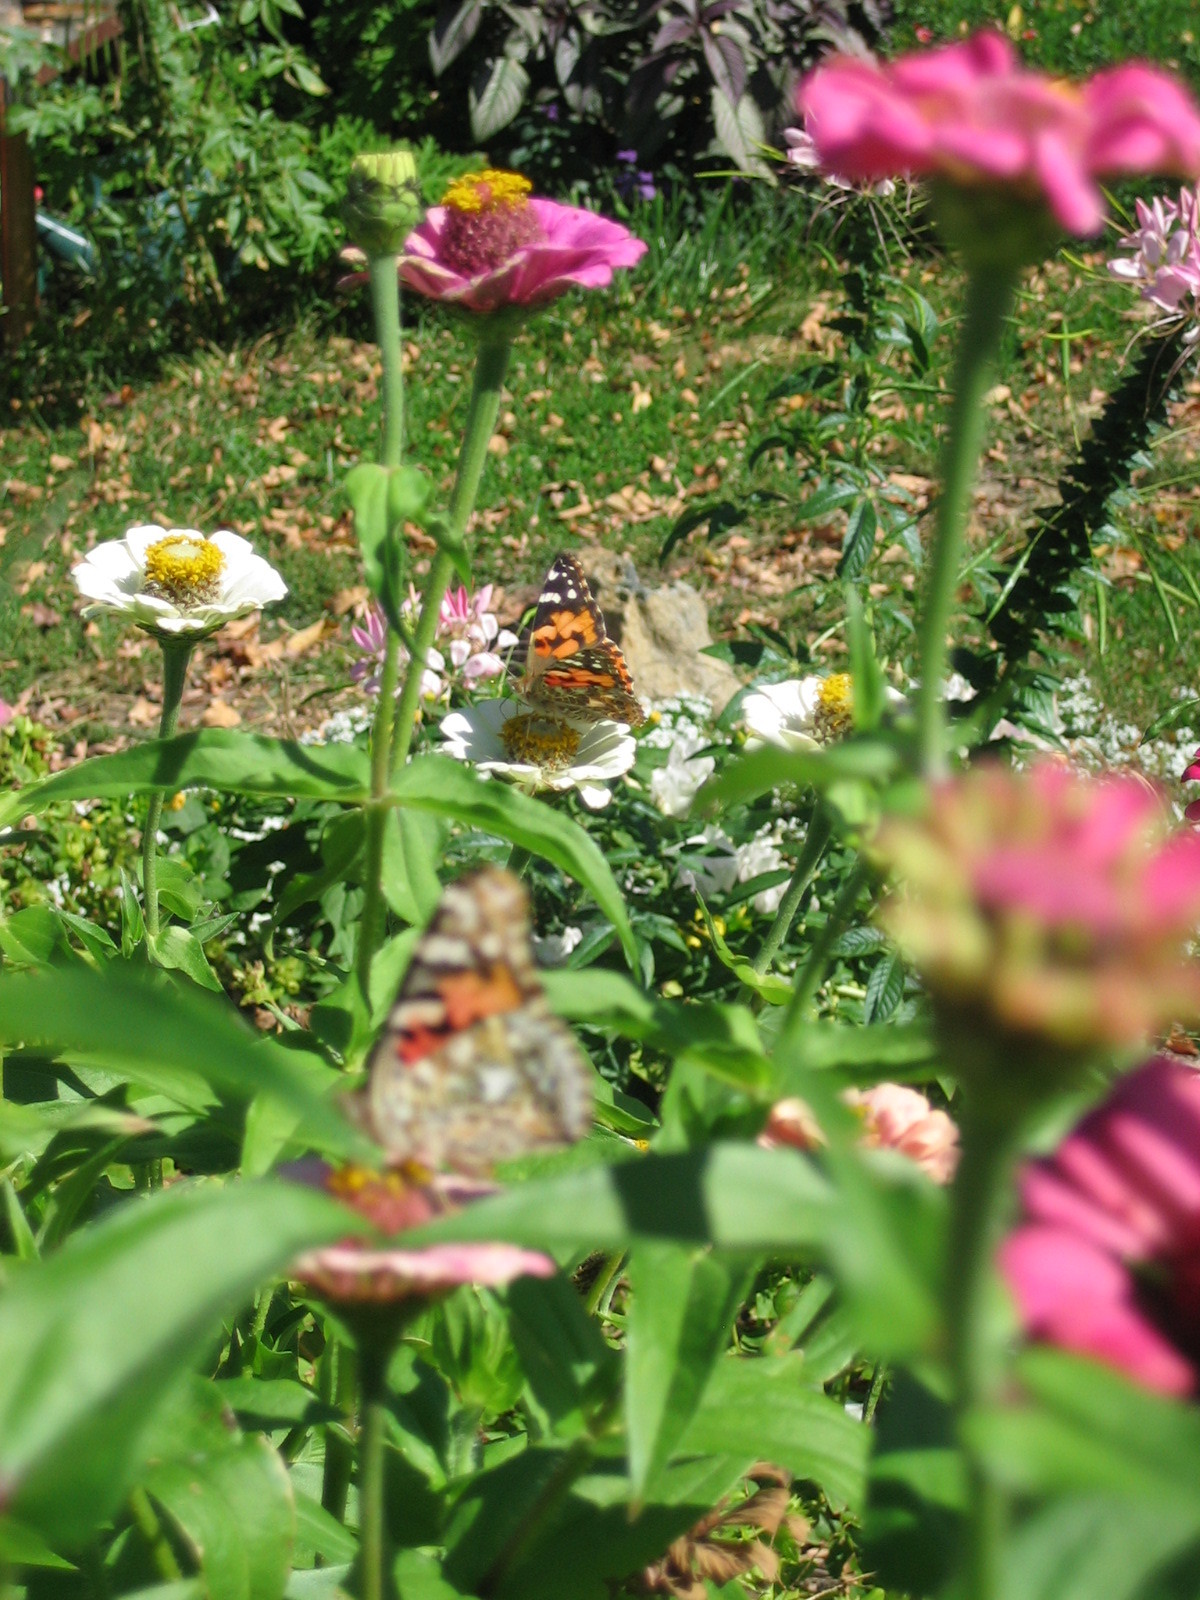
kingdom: Animalia
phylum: Arthropoda
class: Insecta
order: Lepidoptera
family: Nymphalidae
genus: Vanessa
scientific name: Vanessa cardui
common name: Painted lady
